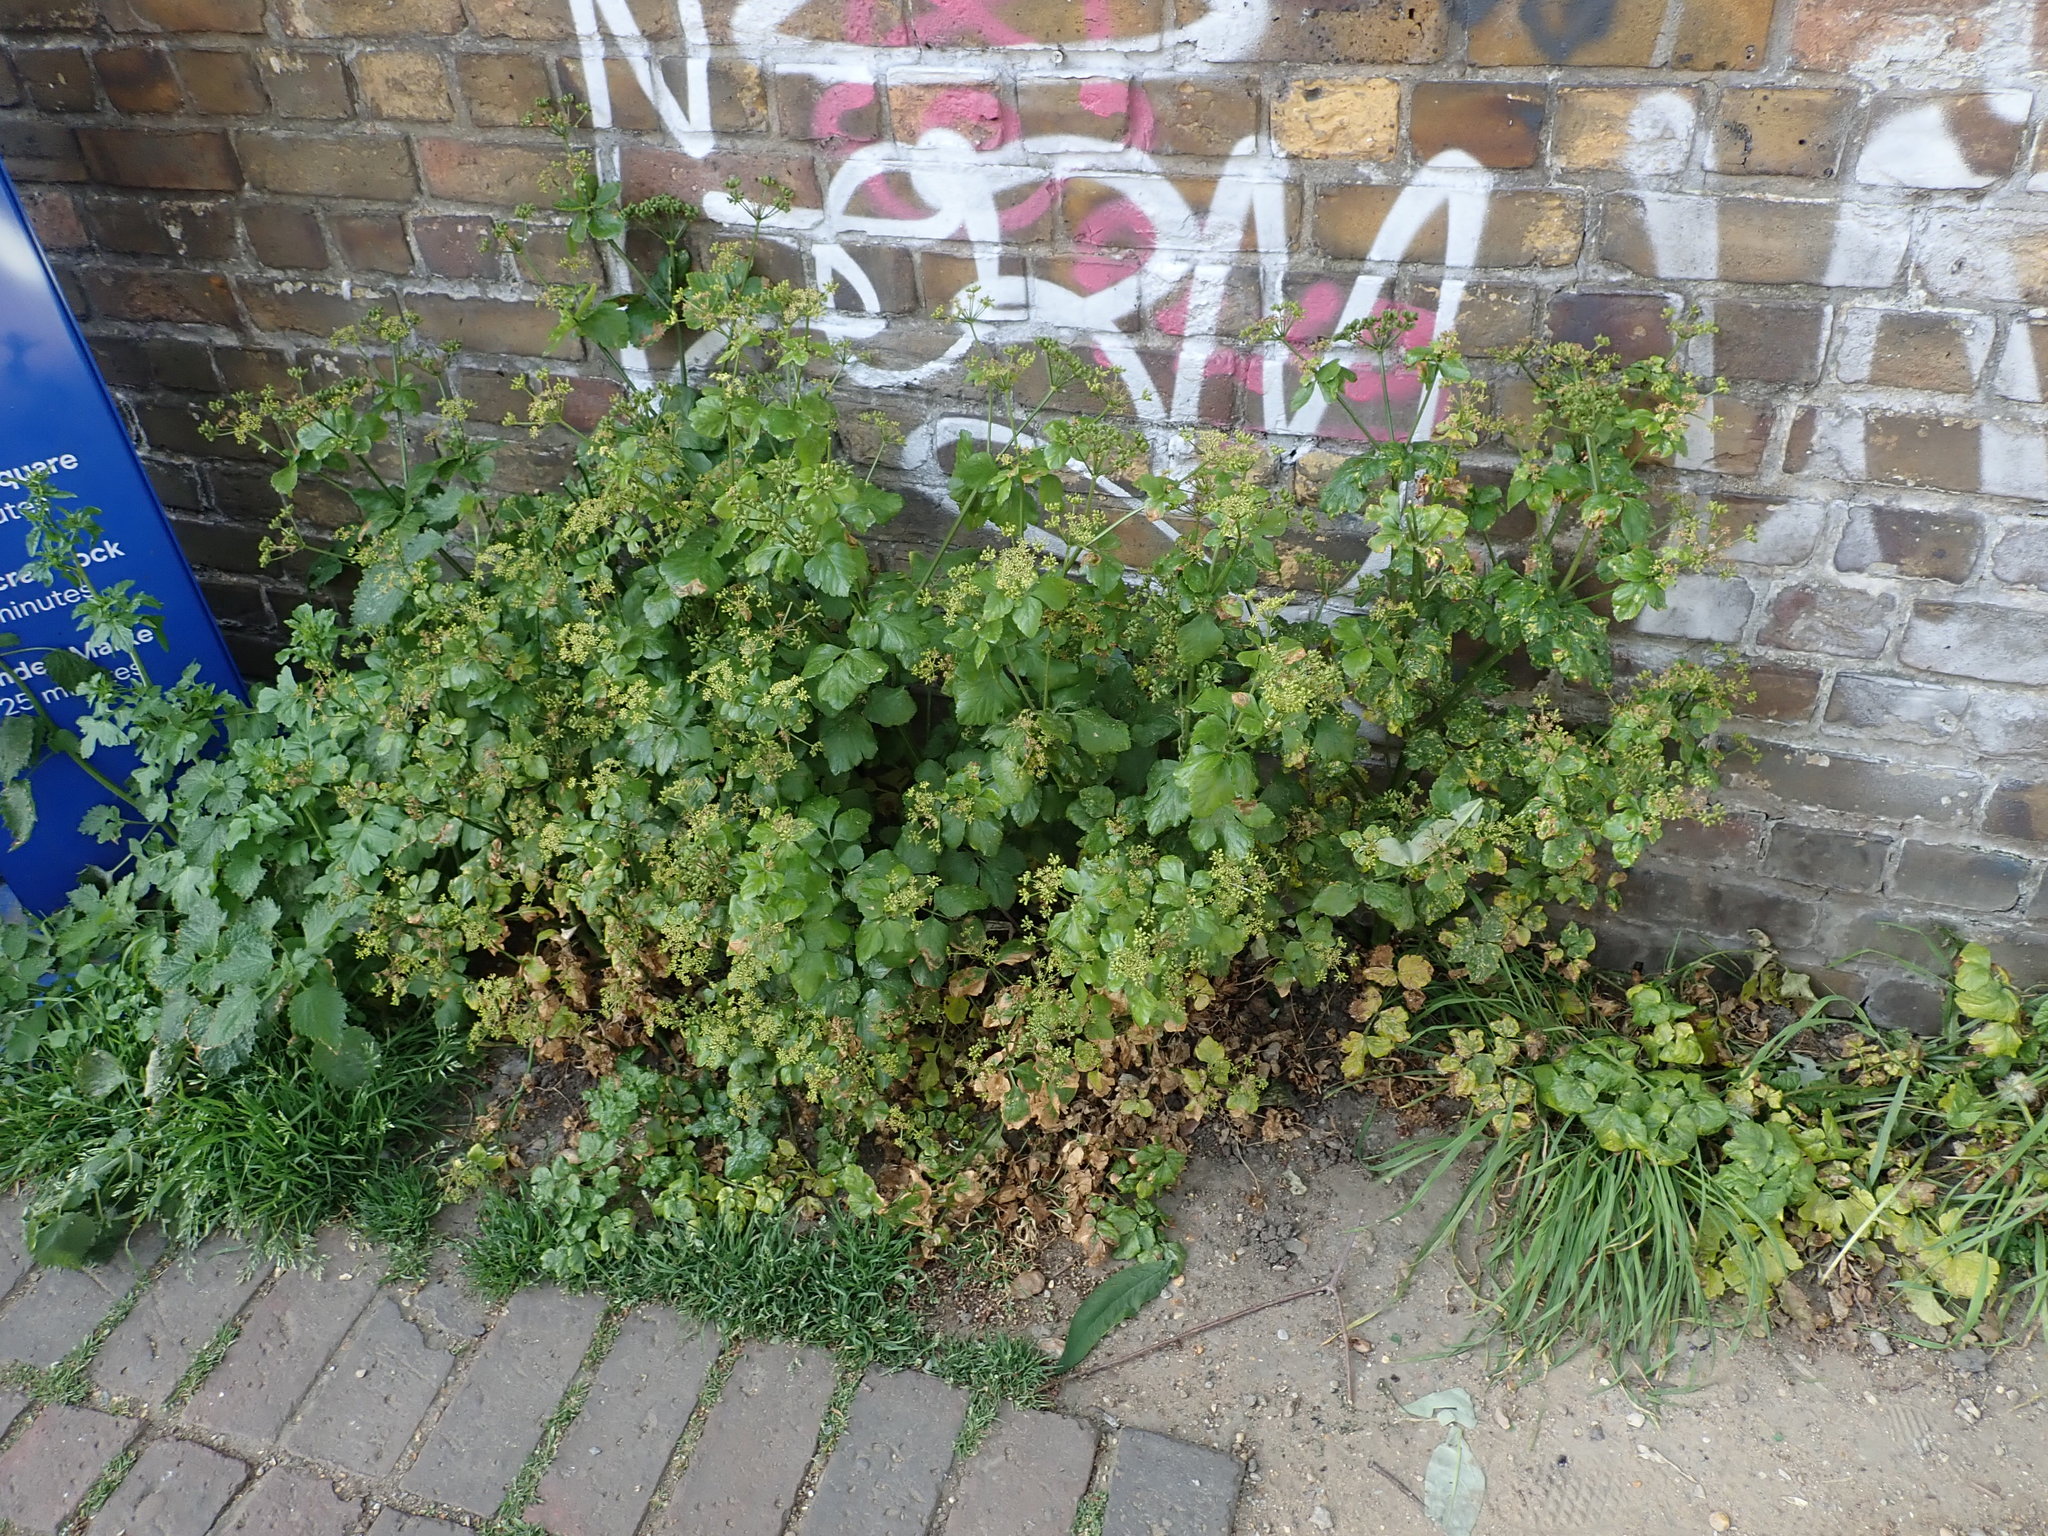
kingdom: Plantae
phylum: Tracheophyta
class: Magnoliopsida
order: Apiales
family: Apiaceae
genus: Smyrnium
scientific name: Smyrnium olusatrum
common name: Alexanders
